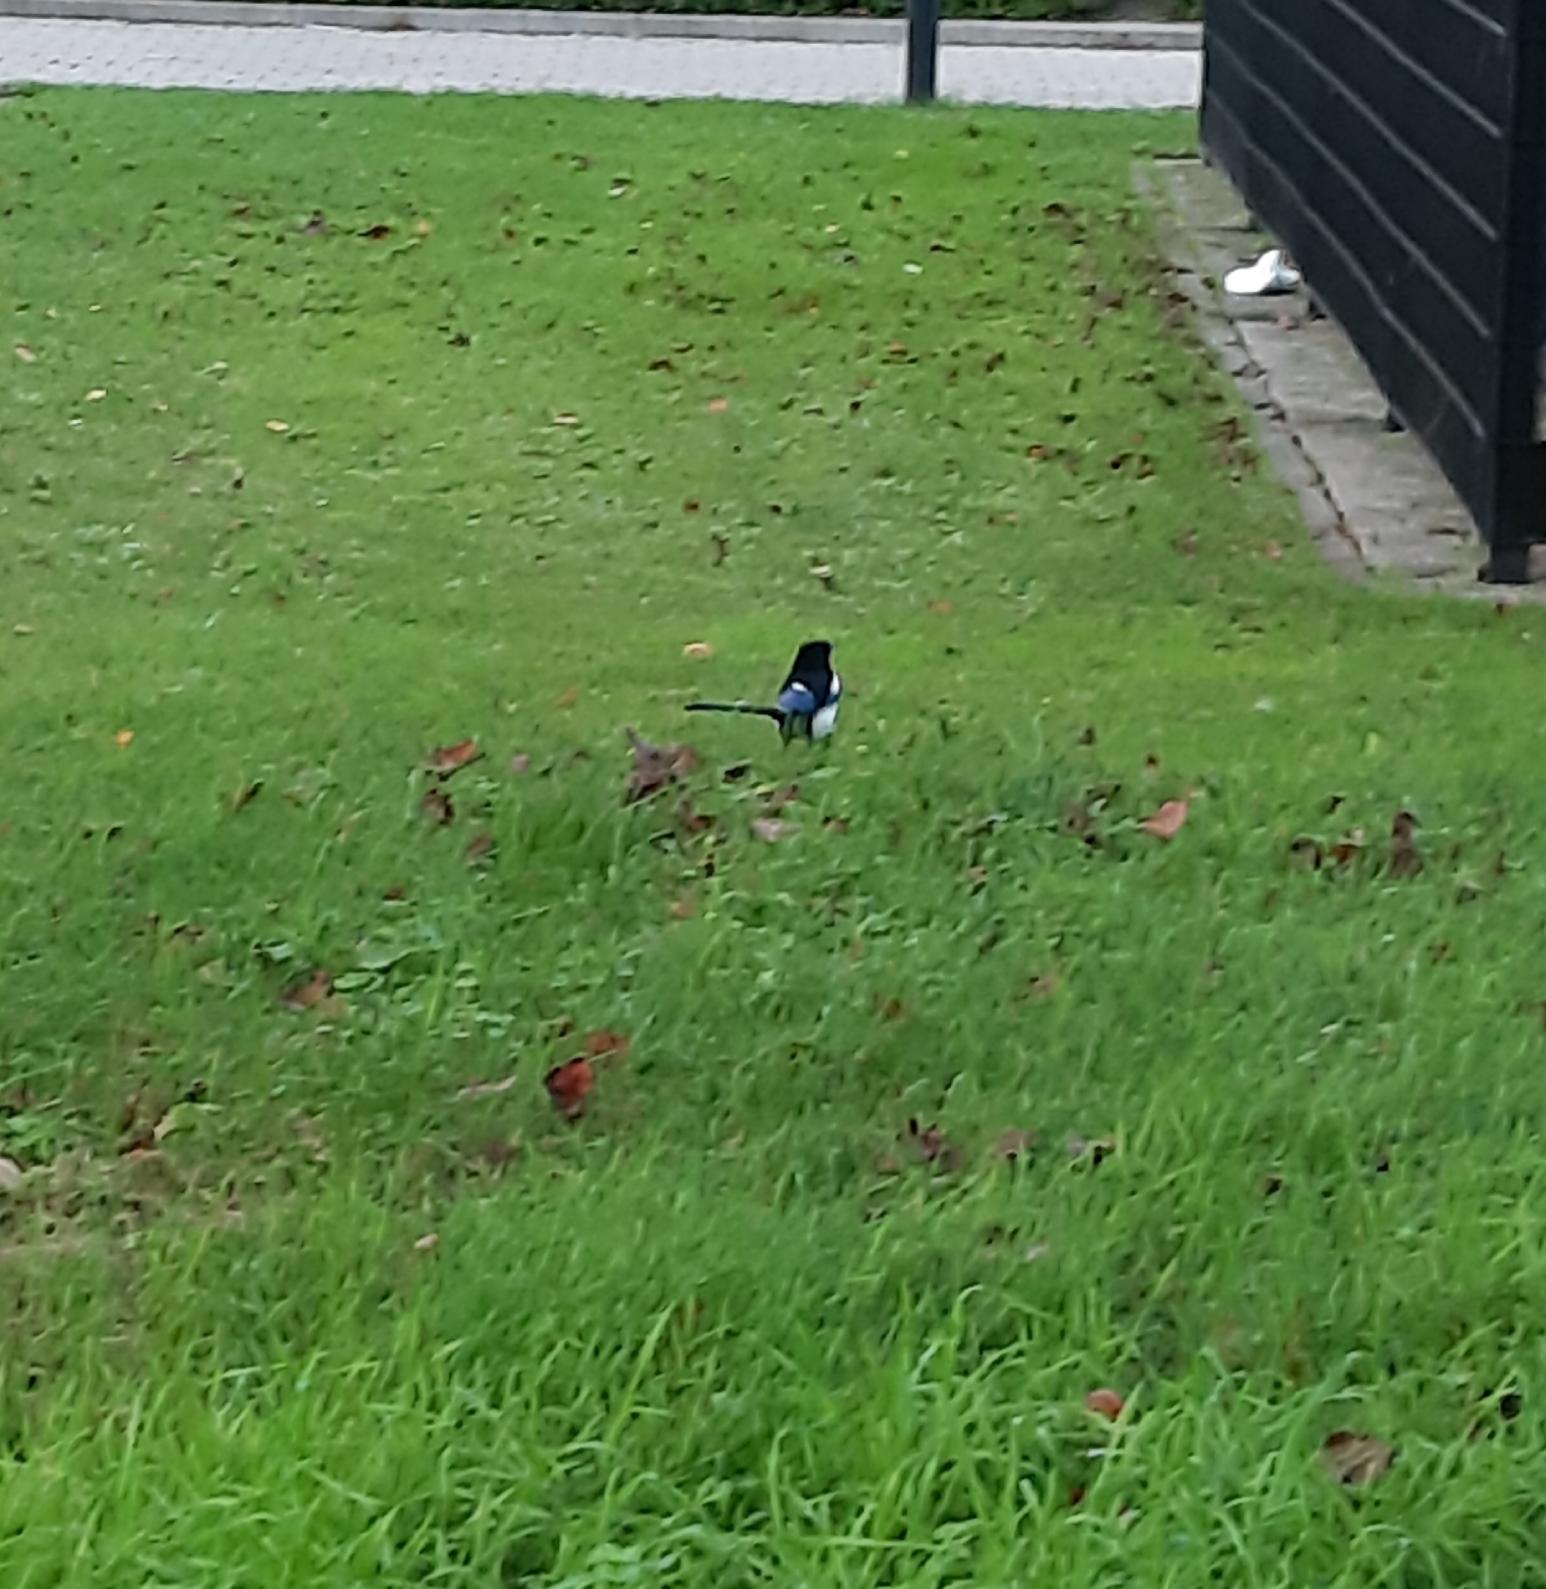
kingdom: Animalia
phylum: Chordata
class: Aves
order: Passeriformes
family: Corvidae
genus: Pica
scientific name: Pica pica
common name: Eurasian magpie
